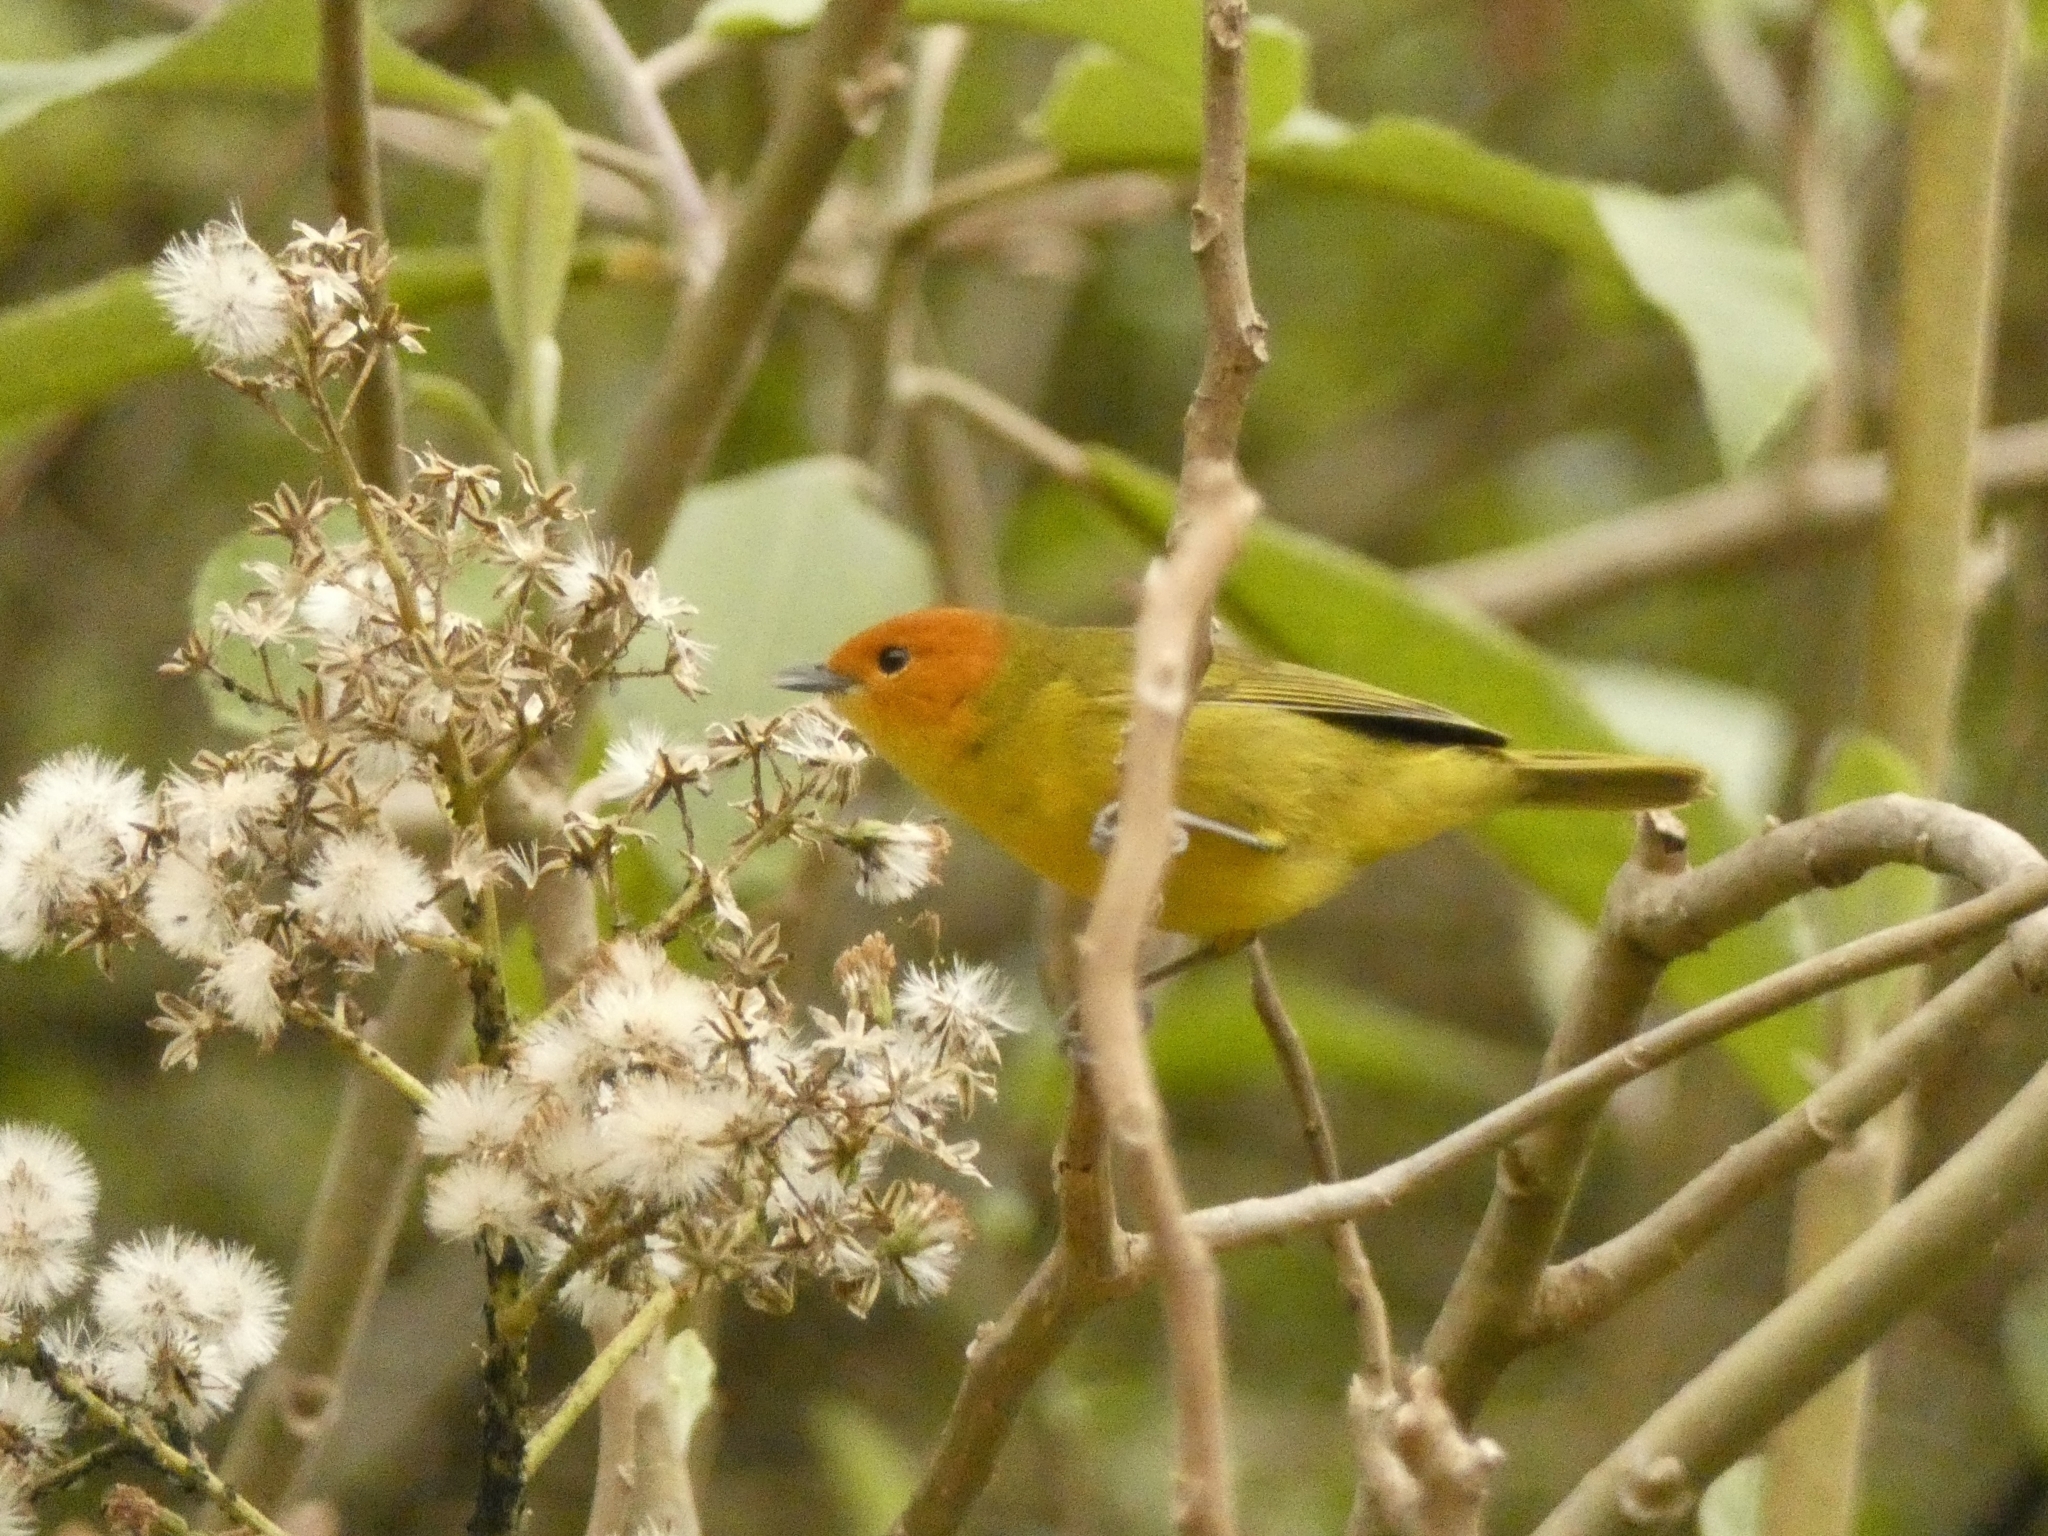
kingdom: Animalia
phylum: Chordata
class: Aves
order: Passeriformes
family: Thraupidae
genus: Thlypopsis
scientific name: Thlypopsis ruficeps
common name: Rust-and-yellow tanager
